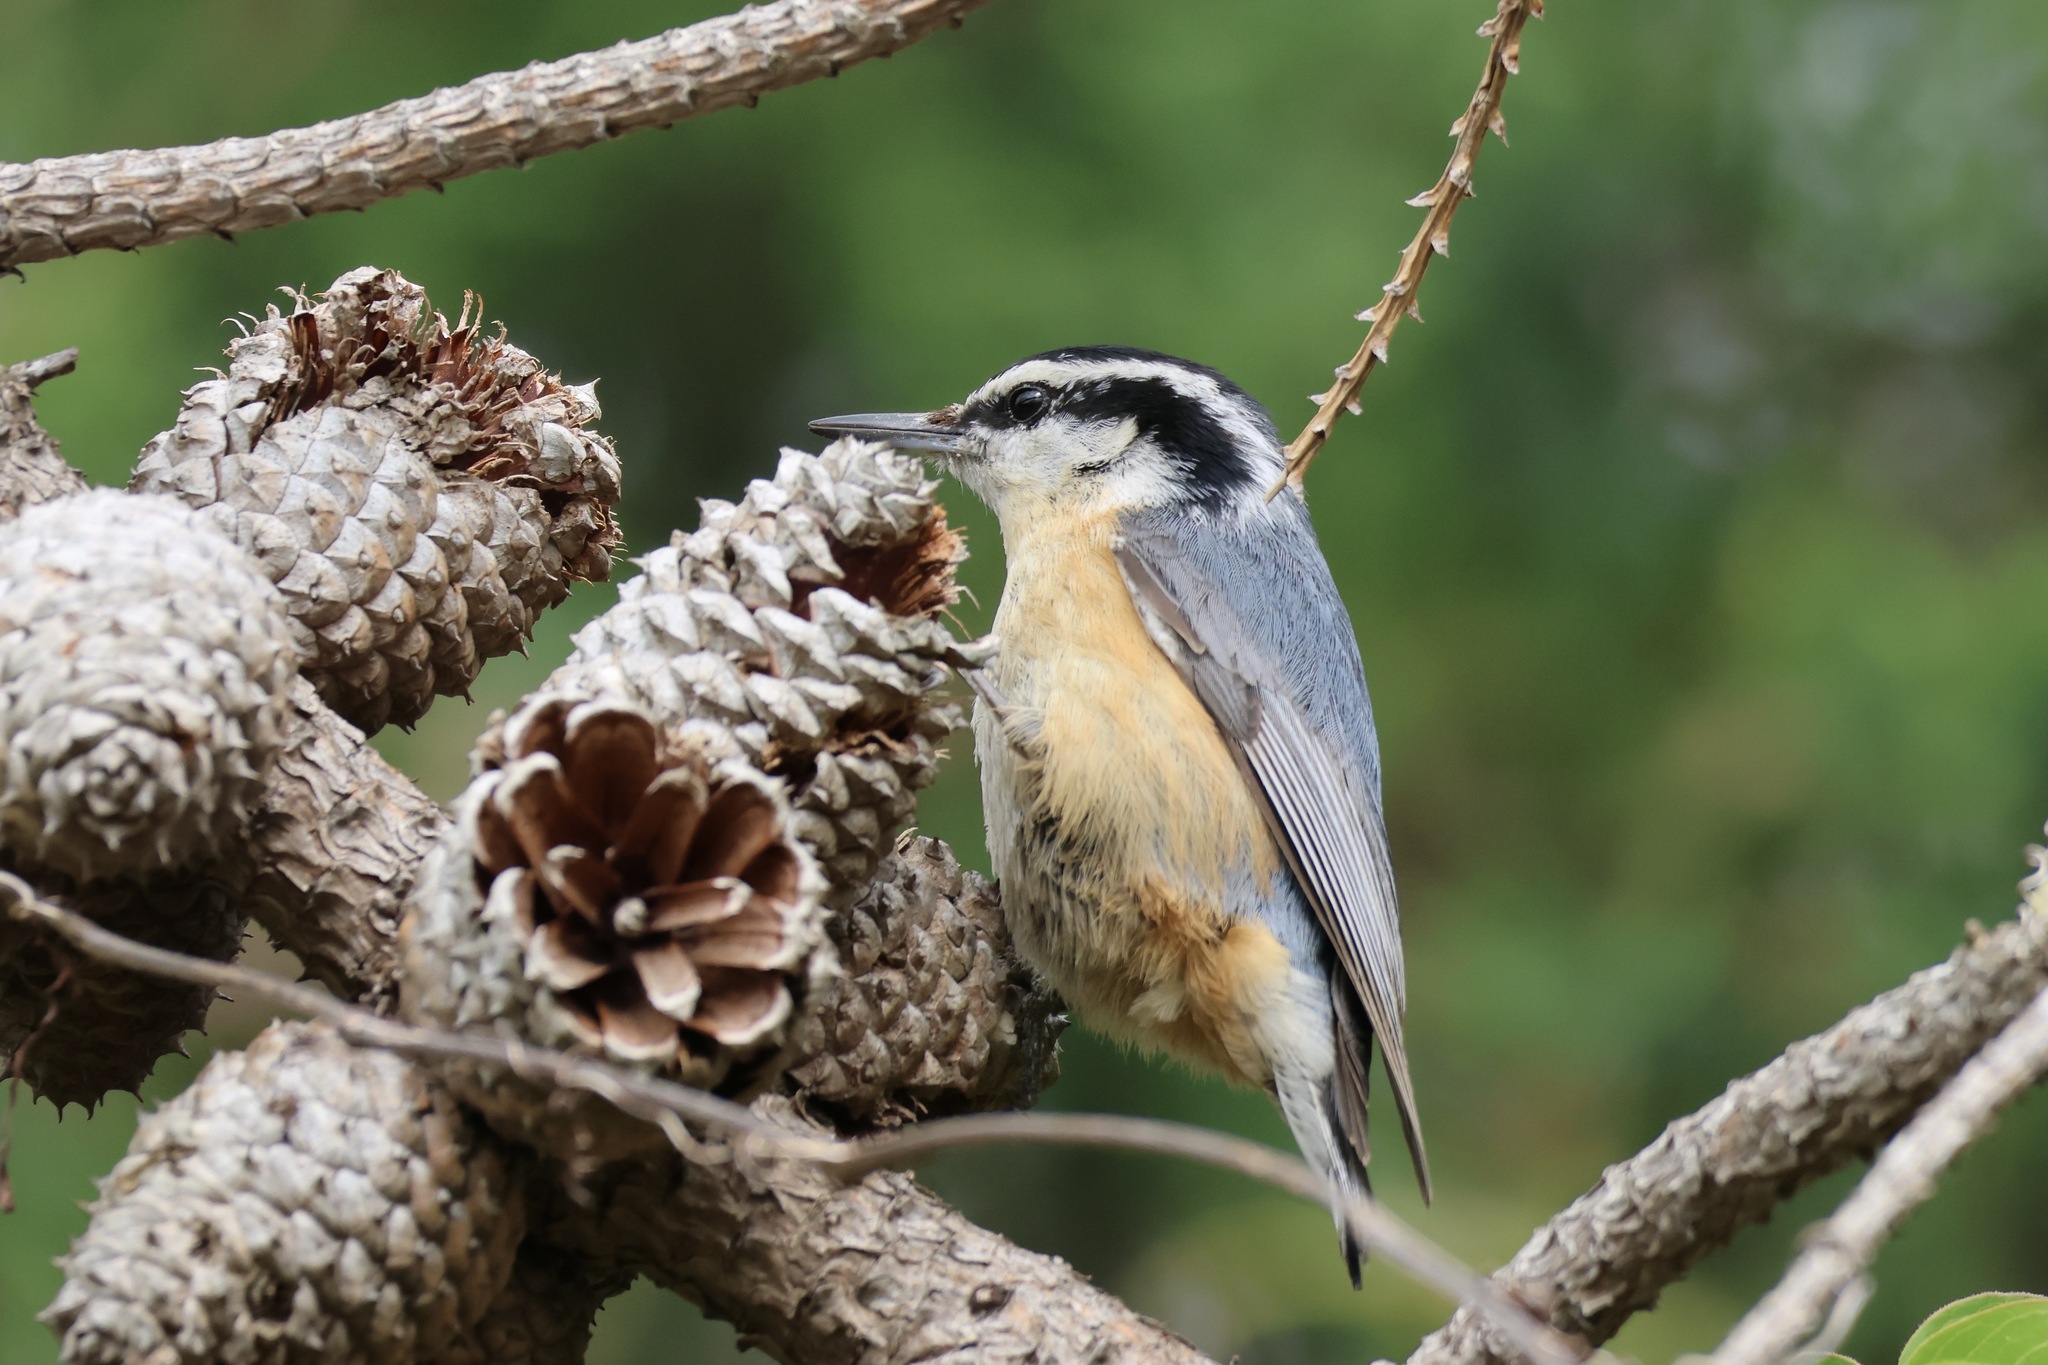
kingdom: Animalia
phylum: Chordata
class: Aves
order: Passeriformes
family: Sittidae
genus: Sitta
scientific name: Sitta canadensis
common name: Red-breasted nuthatch
